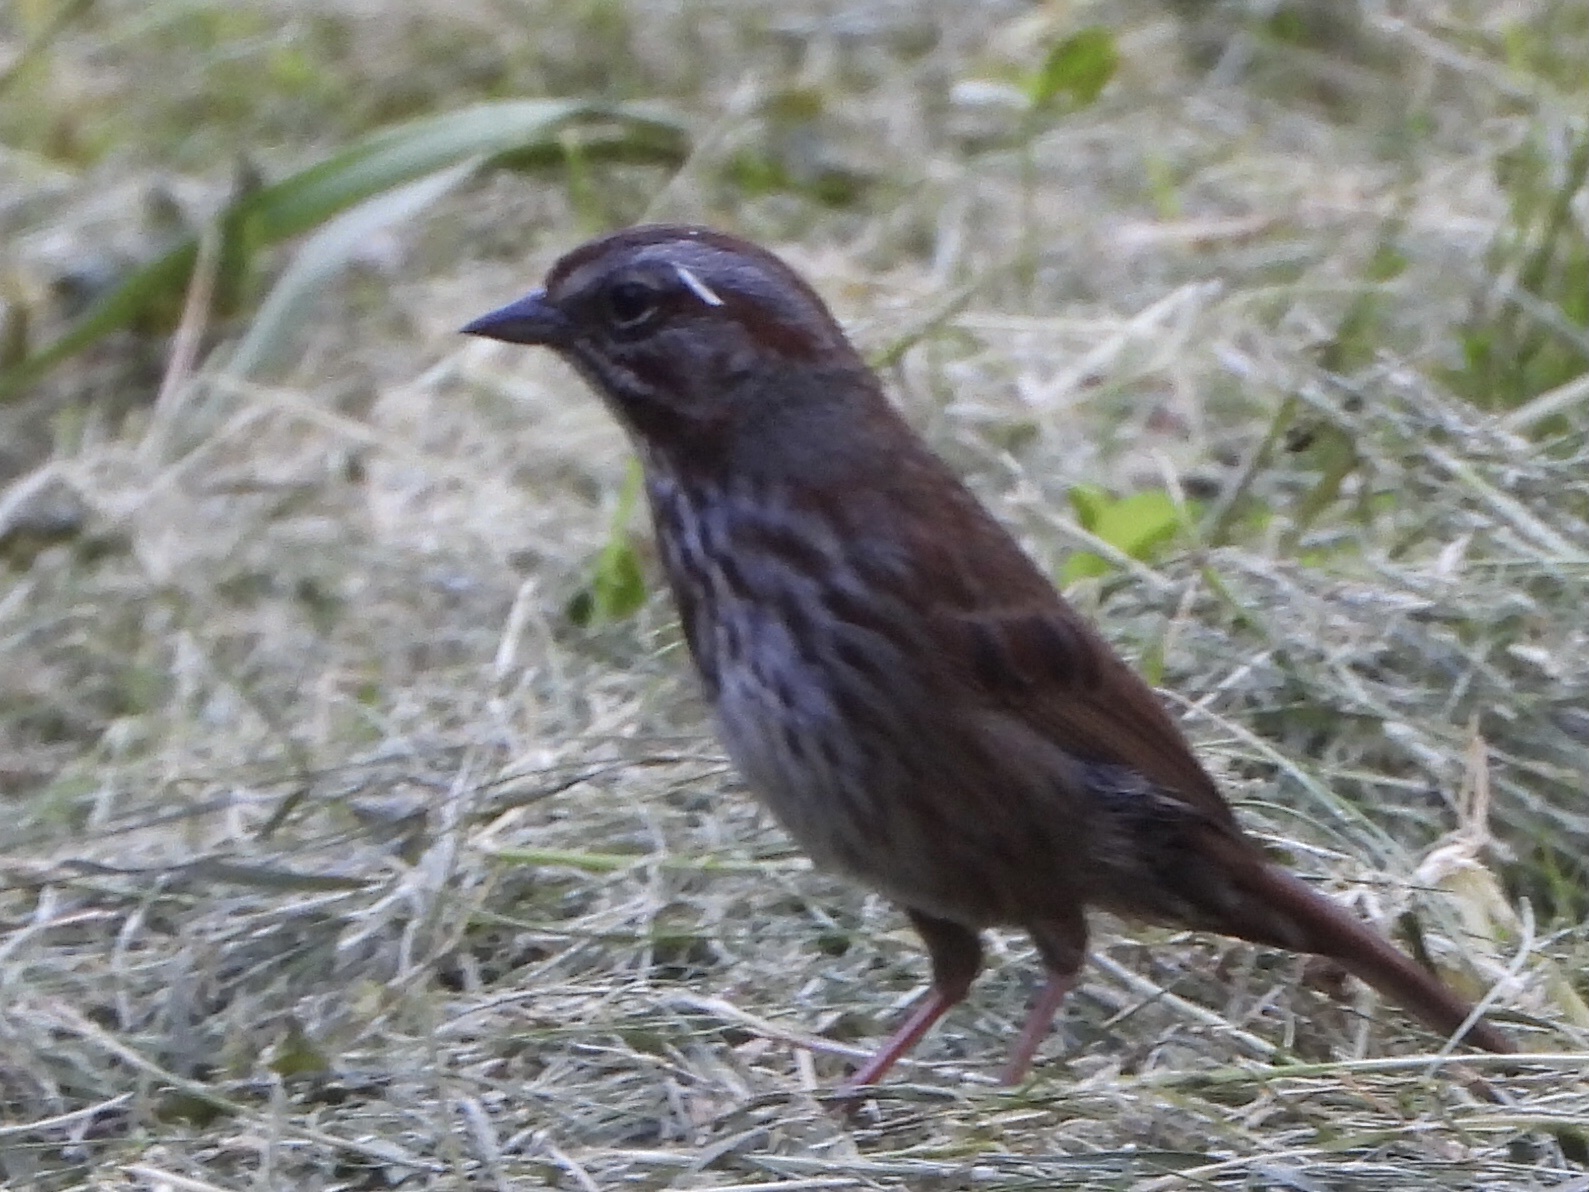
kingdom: Animalia
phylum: Chordata
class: Aves
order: Passeriformes
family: Passerellidae
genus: Melospiza
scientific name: Melospiza melodia
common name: Song sparrow
